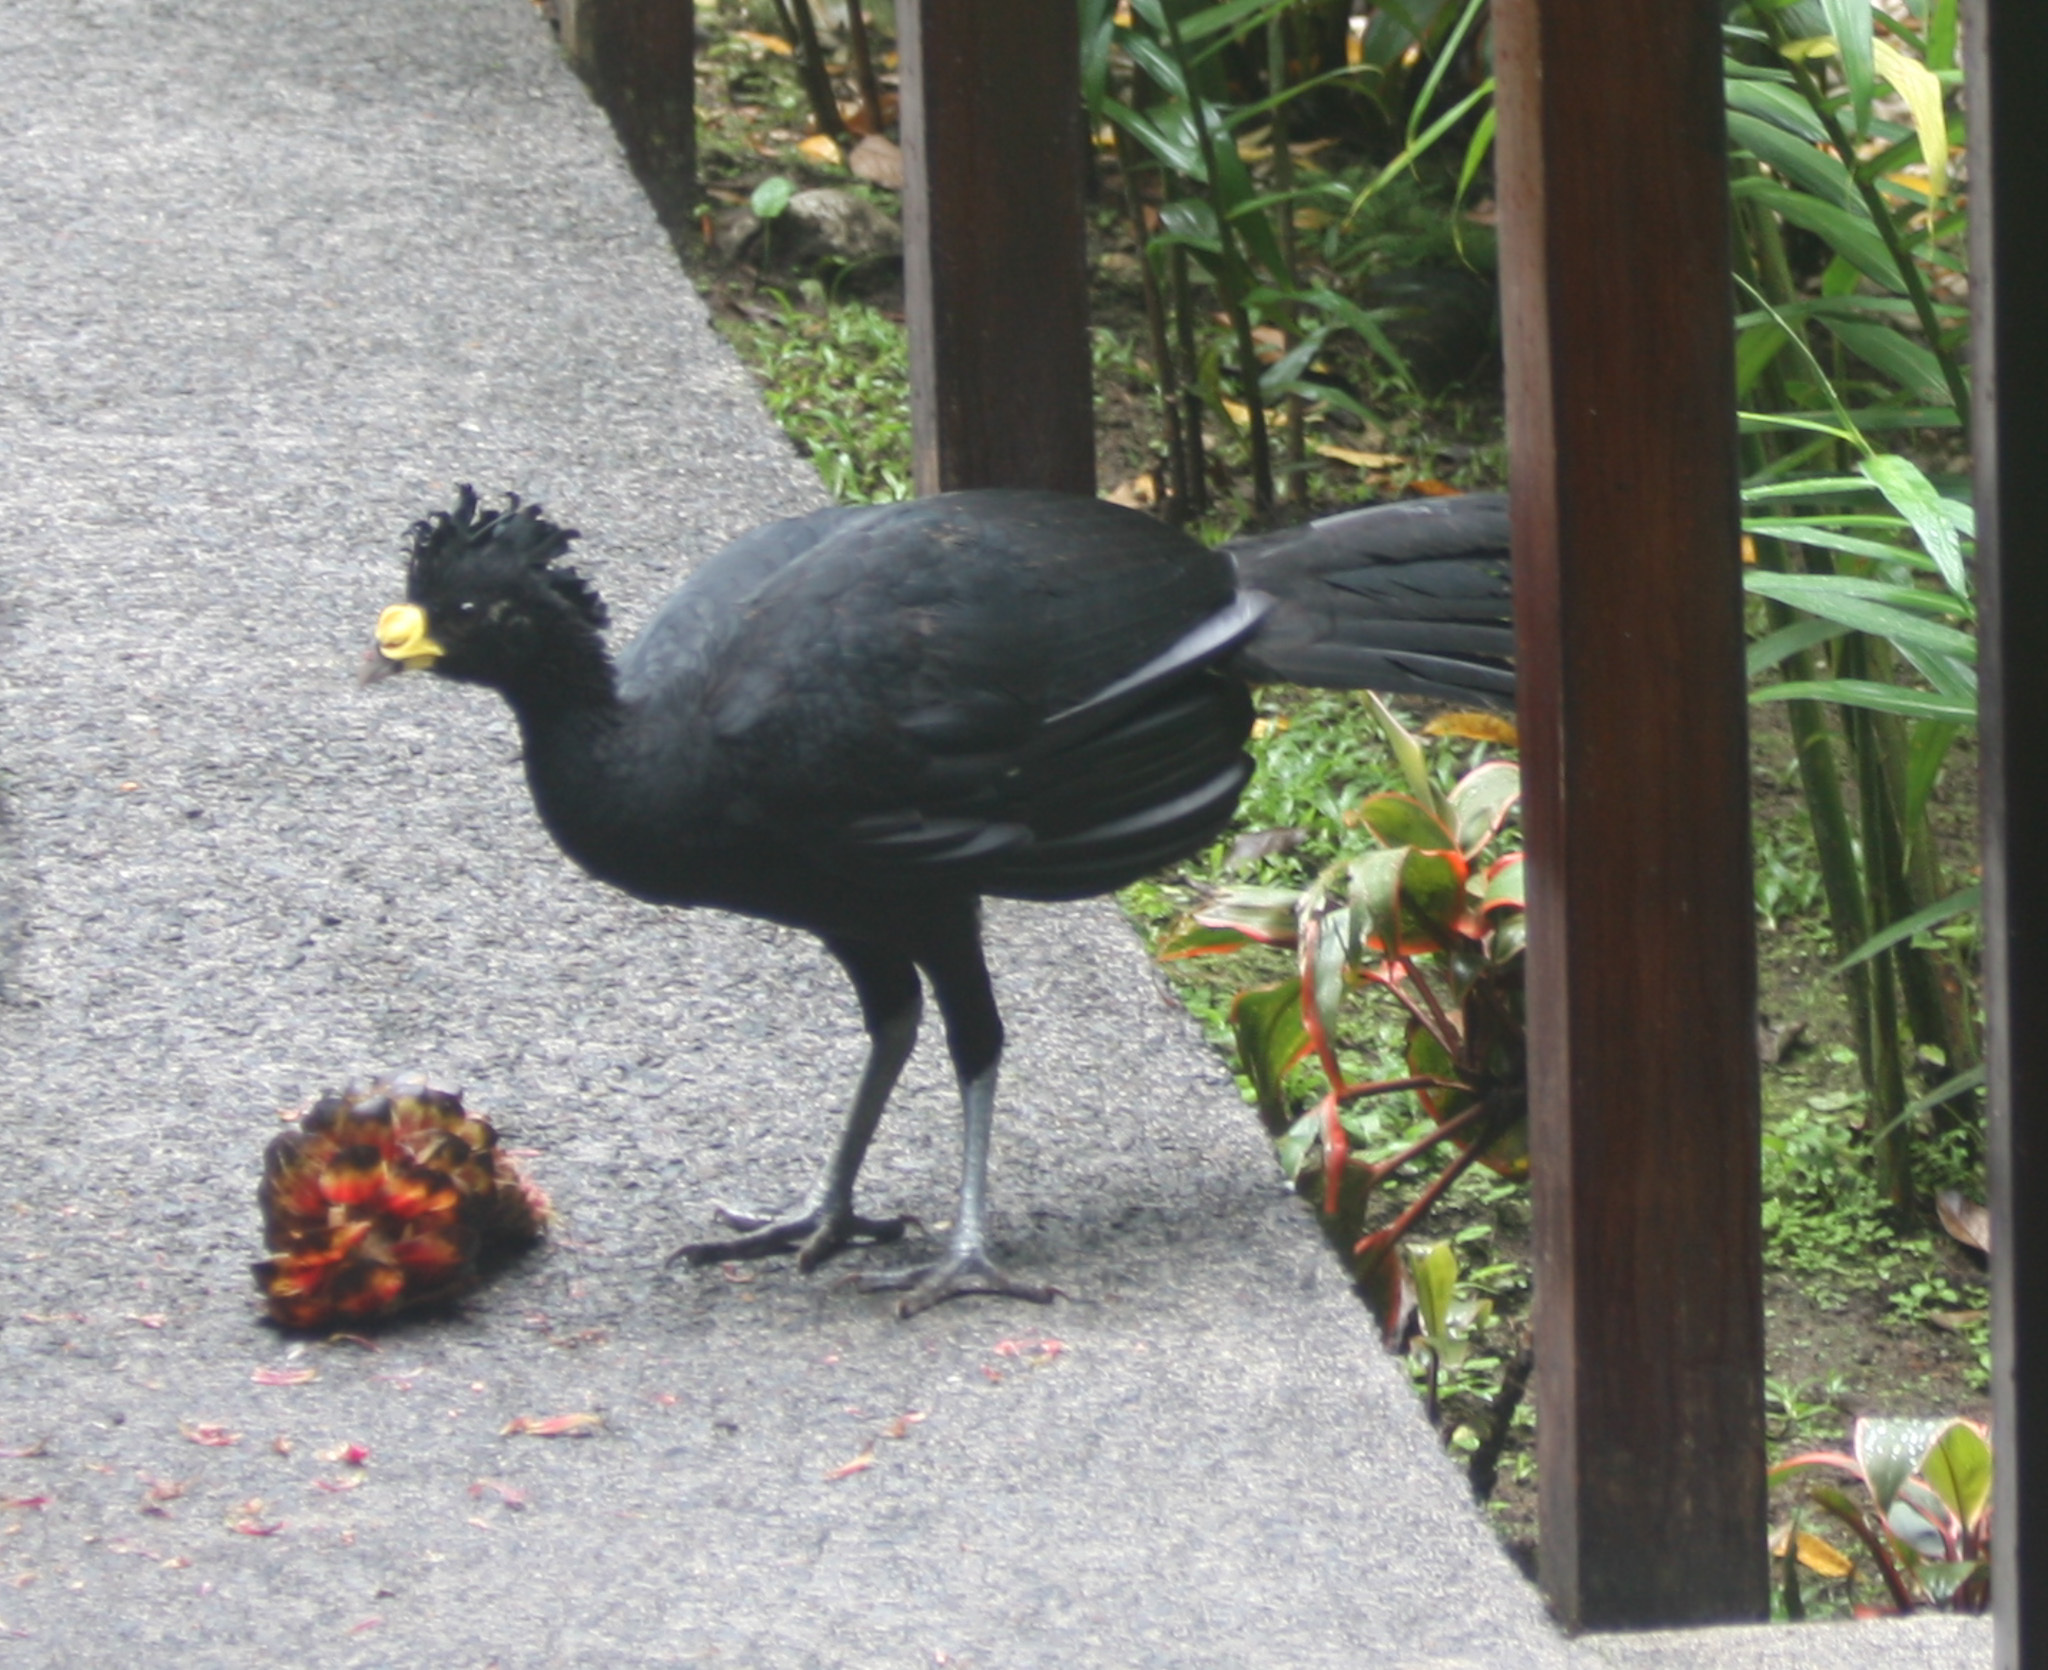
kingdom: Animalia
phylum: Chordata
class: Aves
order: Galliformes
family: Cracidae
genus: Crax
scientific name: Crax rubra
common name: Great curassow
